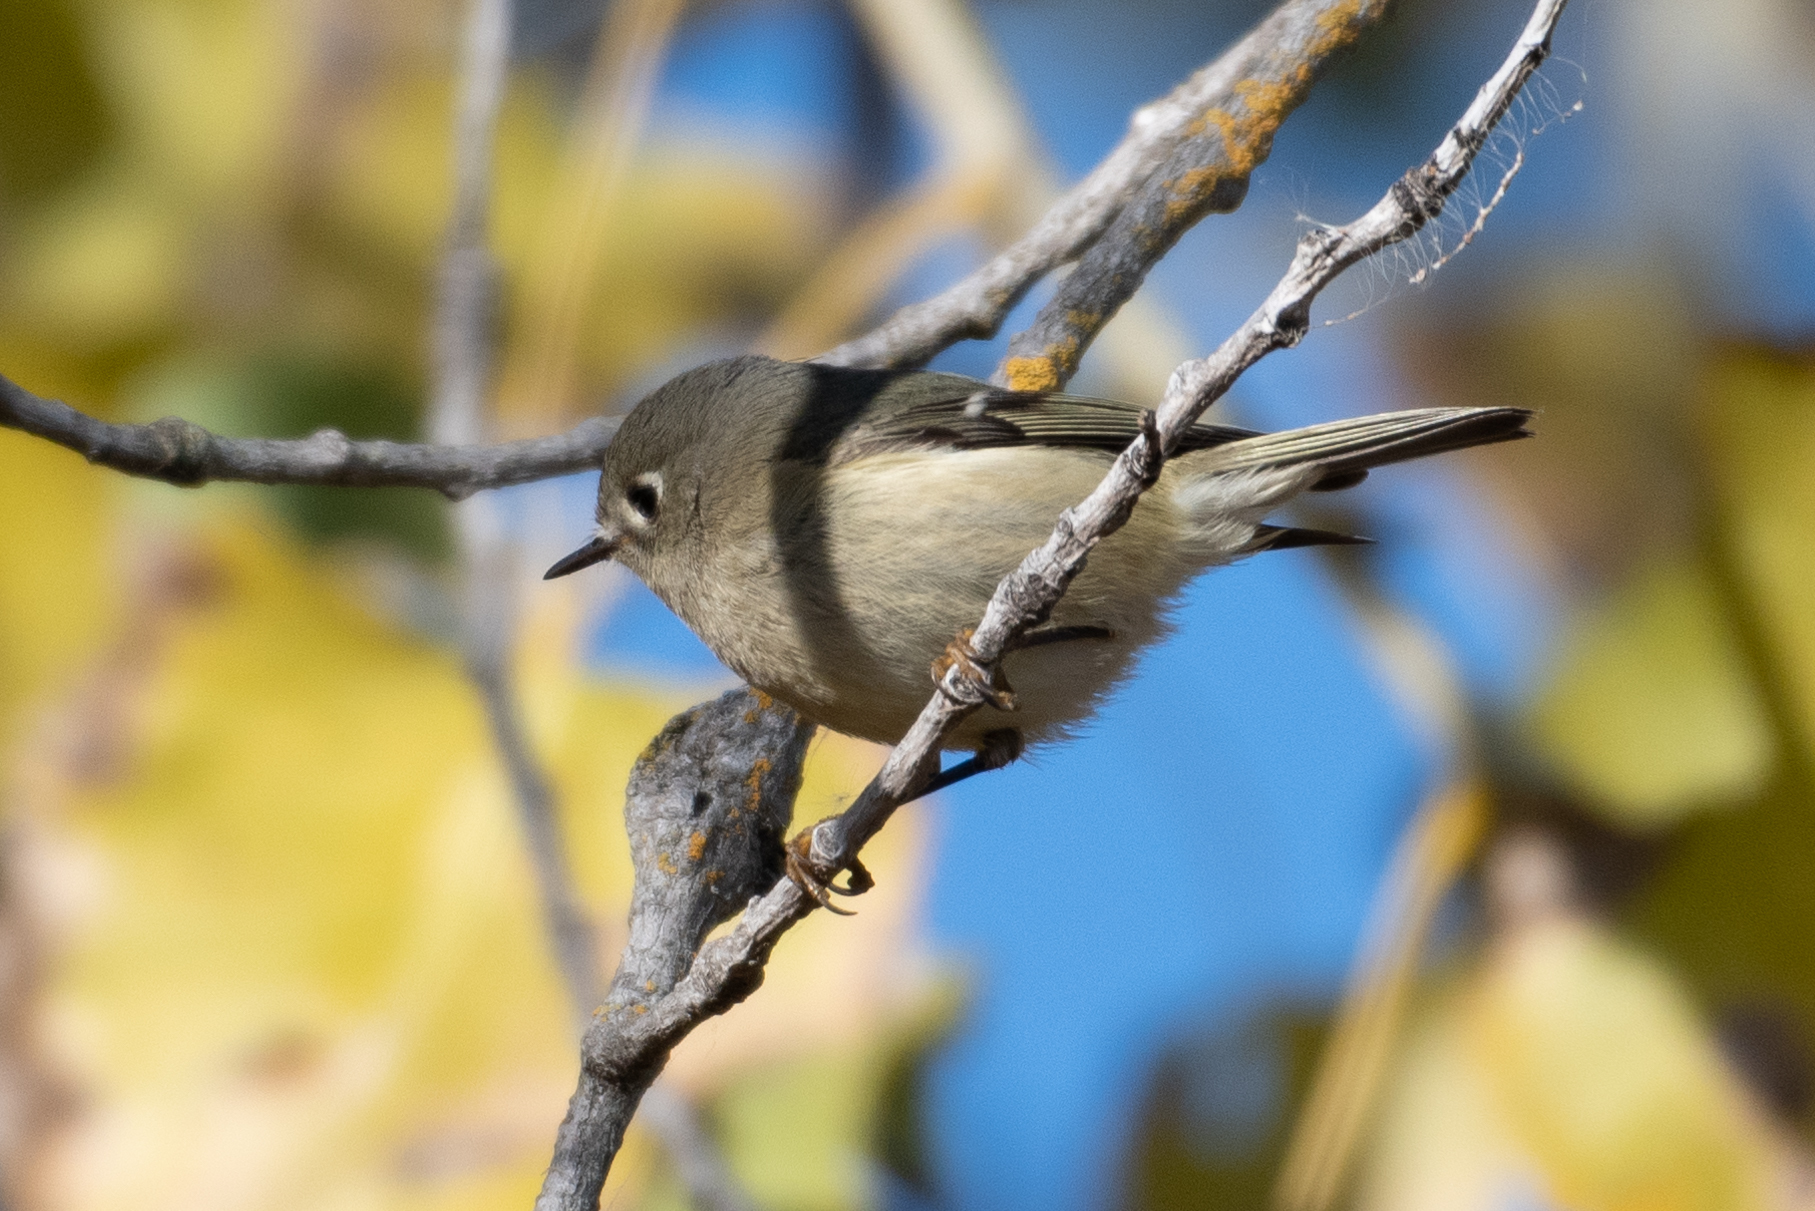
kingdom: Animalia
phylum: Chordata
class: Aves
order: Passeriformes
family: Regulidae
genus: Regulus
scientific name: Regulus calendula
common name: Ruby-crowned kinglet
